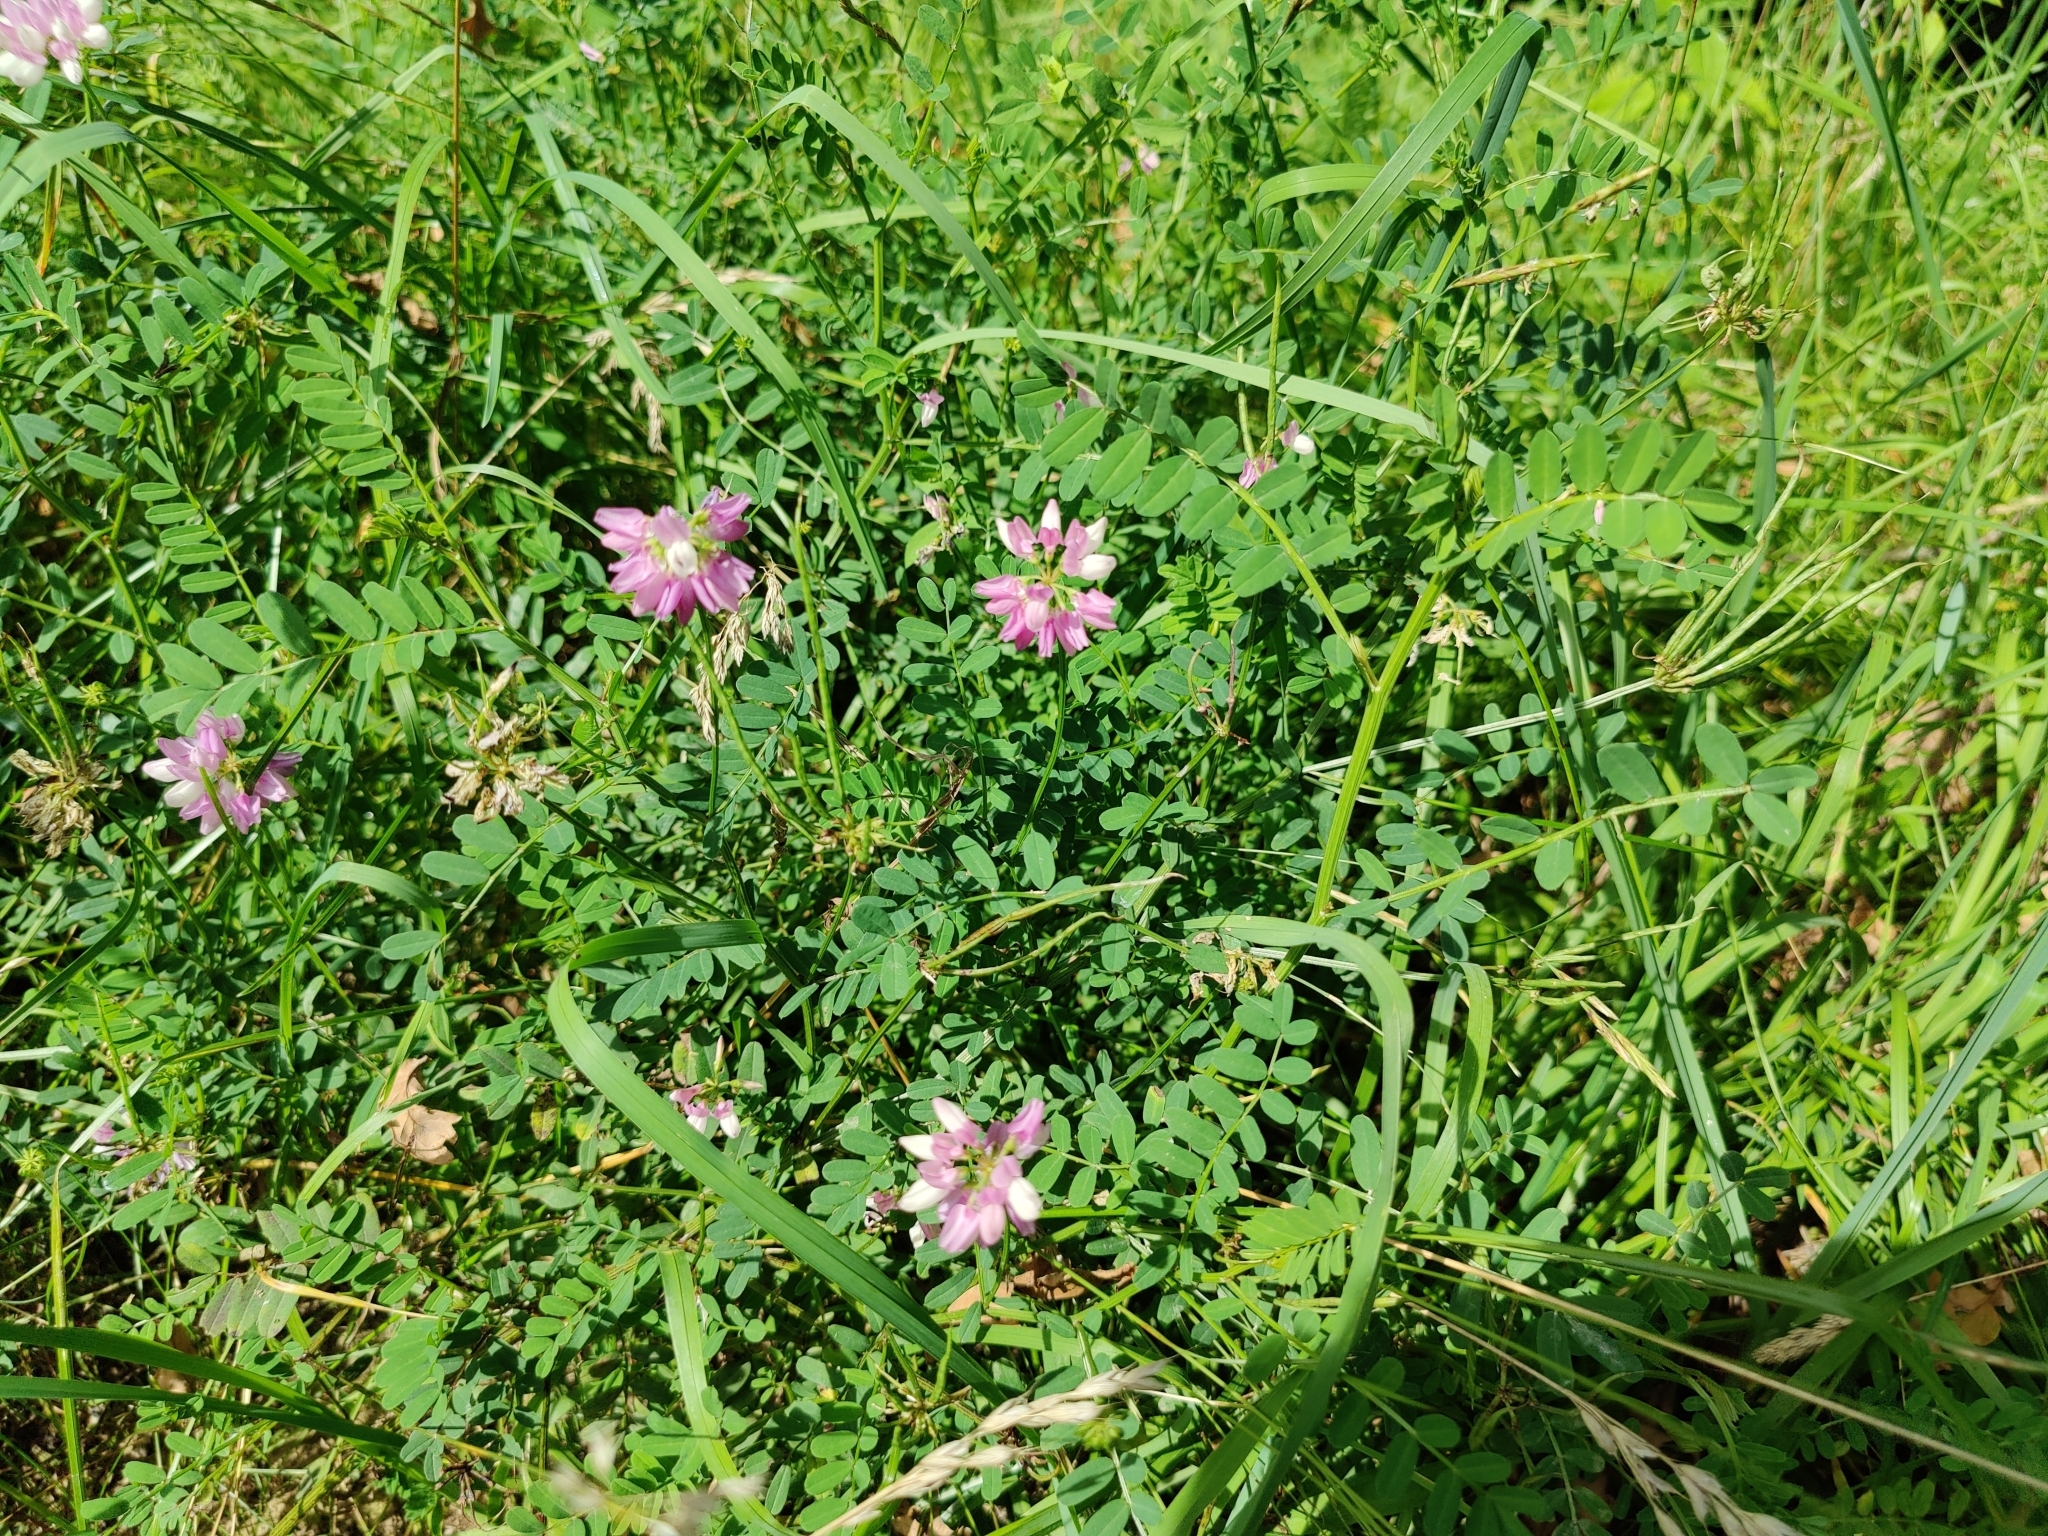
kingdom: Plantae
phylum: Tracheophyta
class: Magnoliopsida
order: Fabales
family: Fabaceae
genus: Coronilla
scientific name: Coronilla varia
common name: Crownvetch
